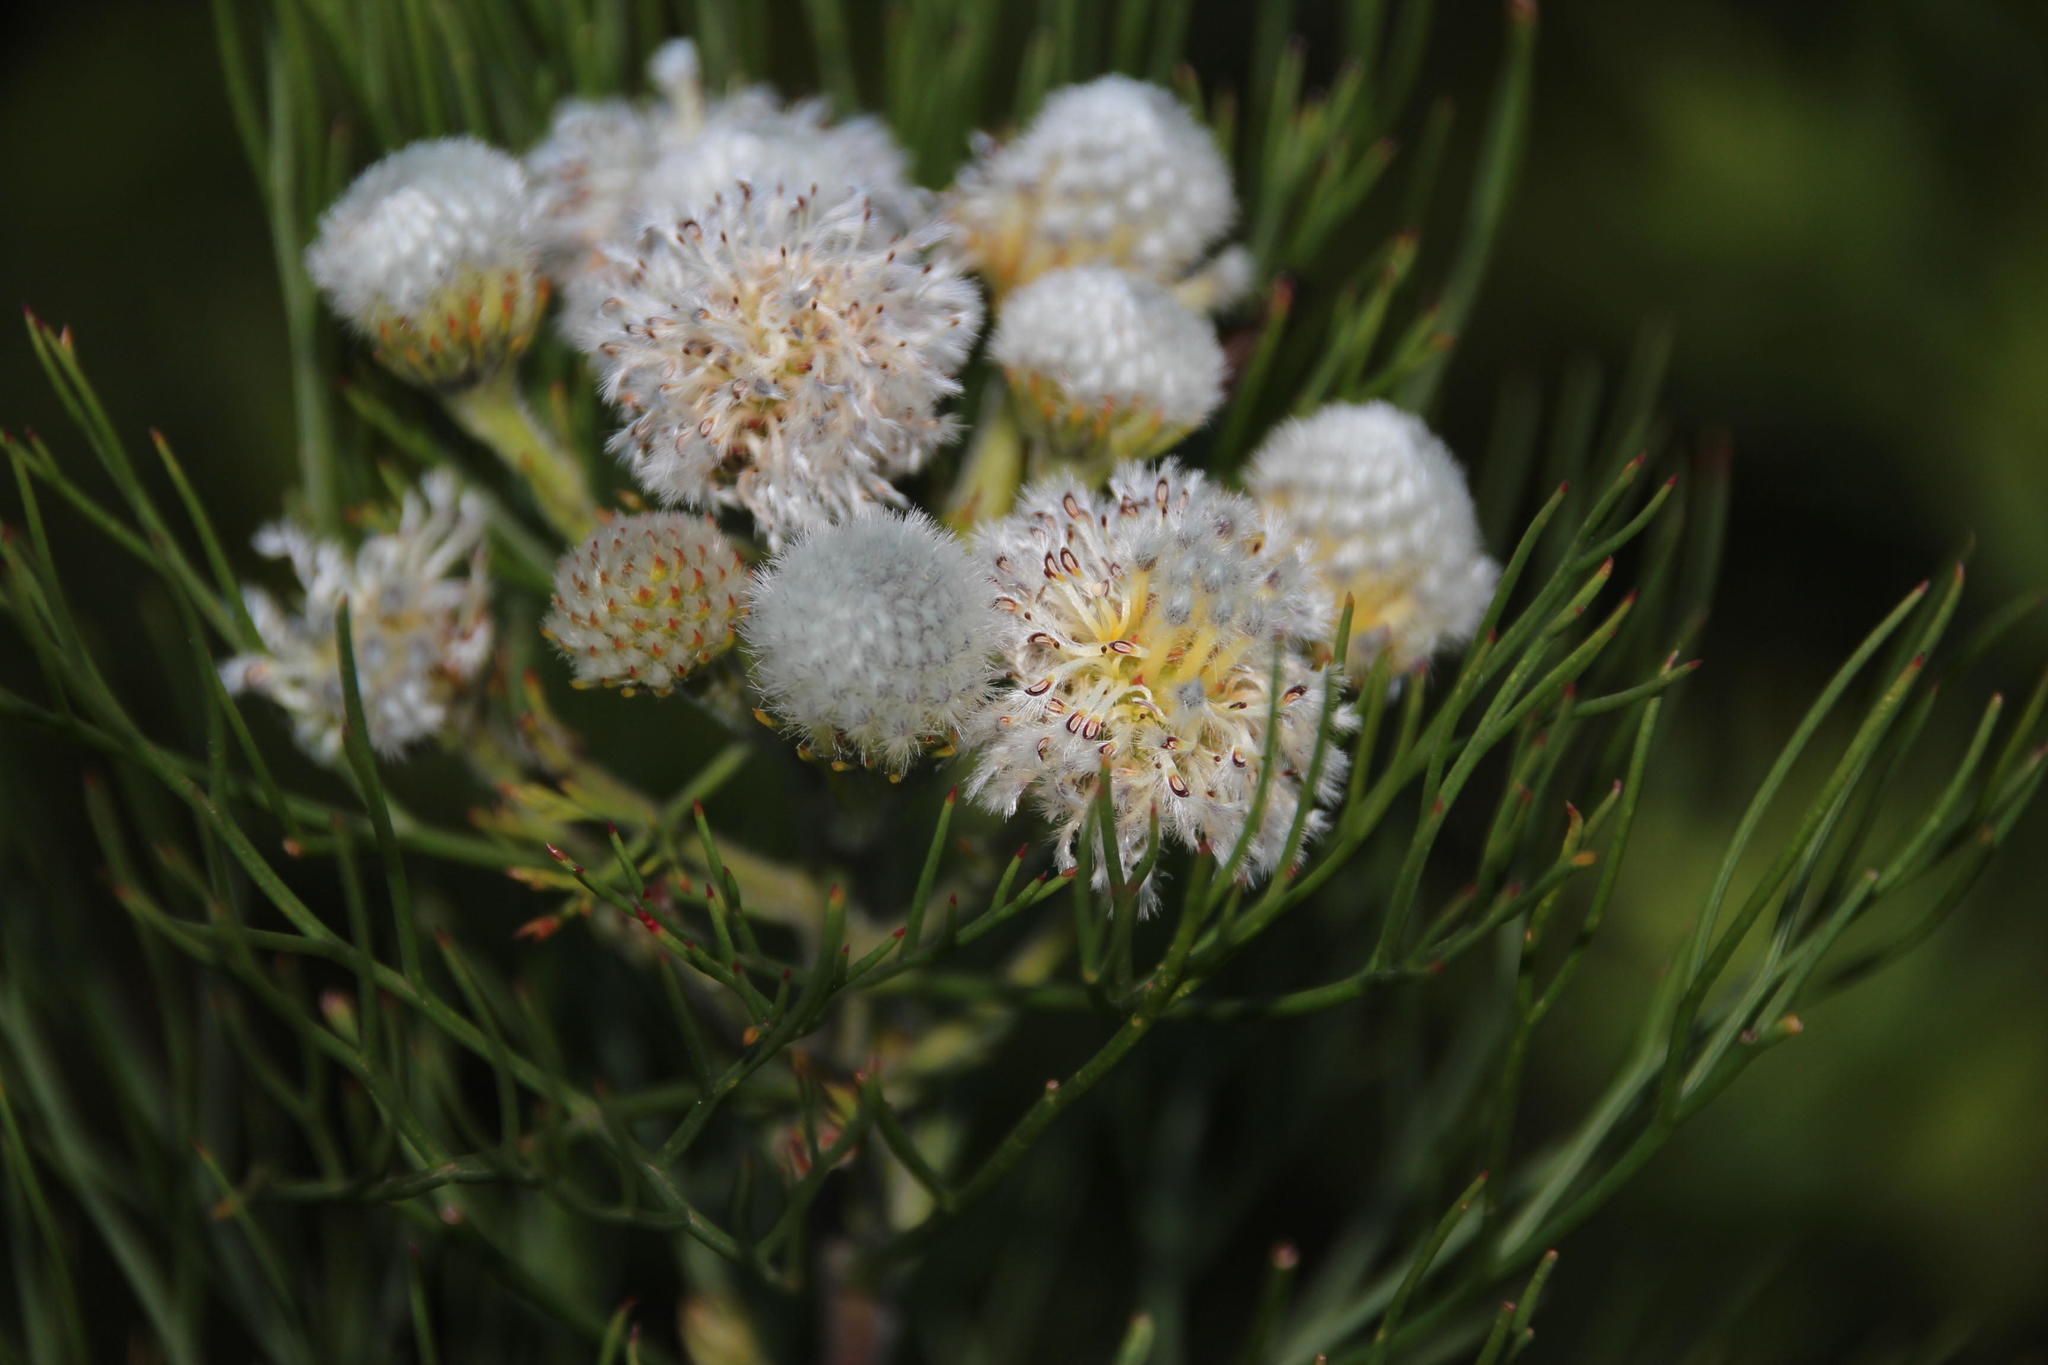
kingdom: Plantae
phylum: Tracheophyta
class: Magnoliopsida
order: Proteales
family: Proteaceae
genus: Serruria
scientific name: Serruria kraussii
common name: Snowball spiderhead
